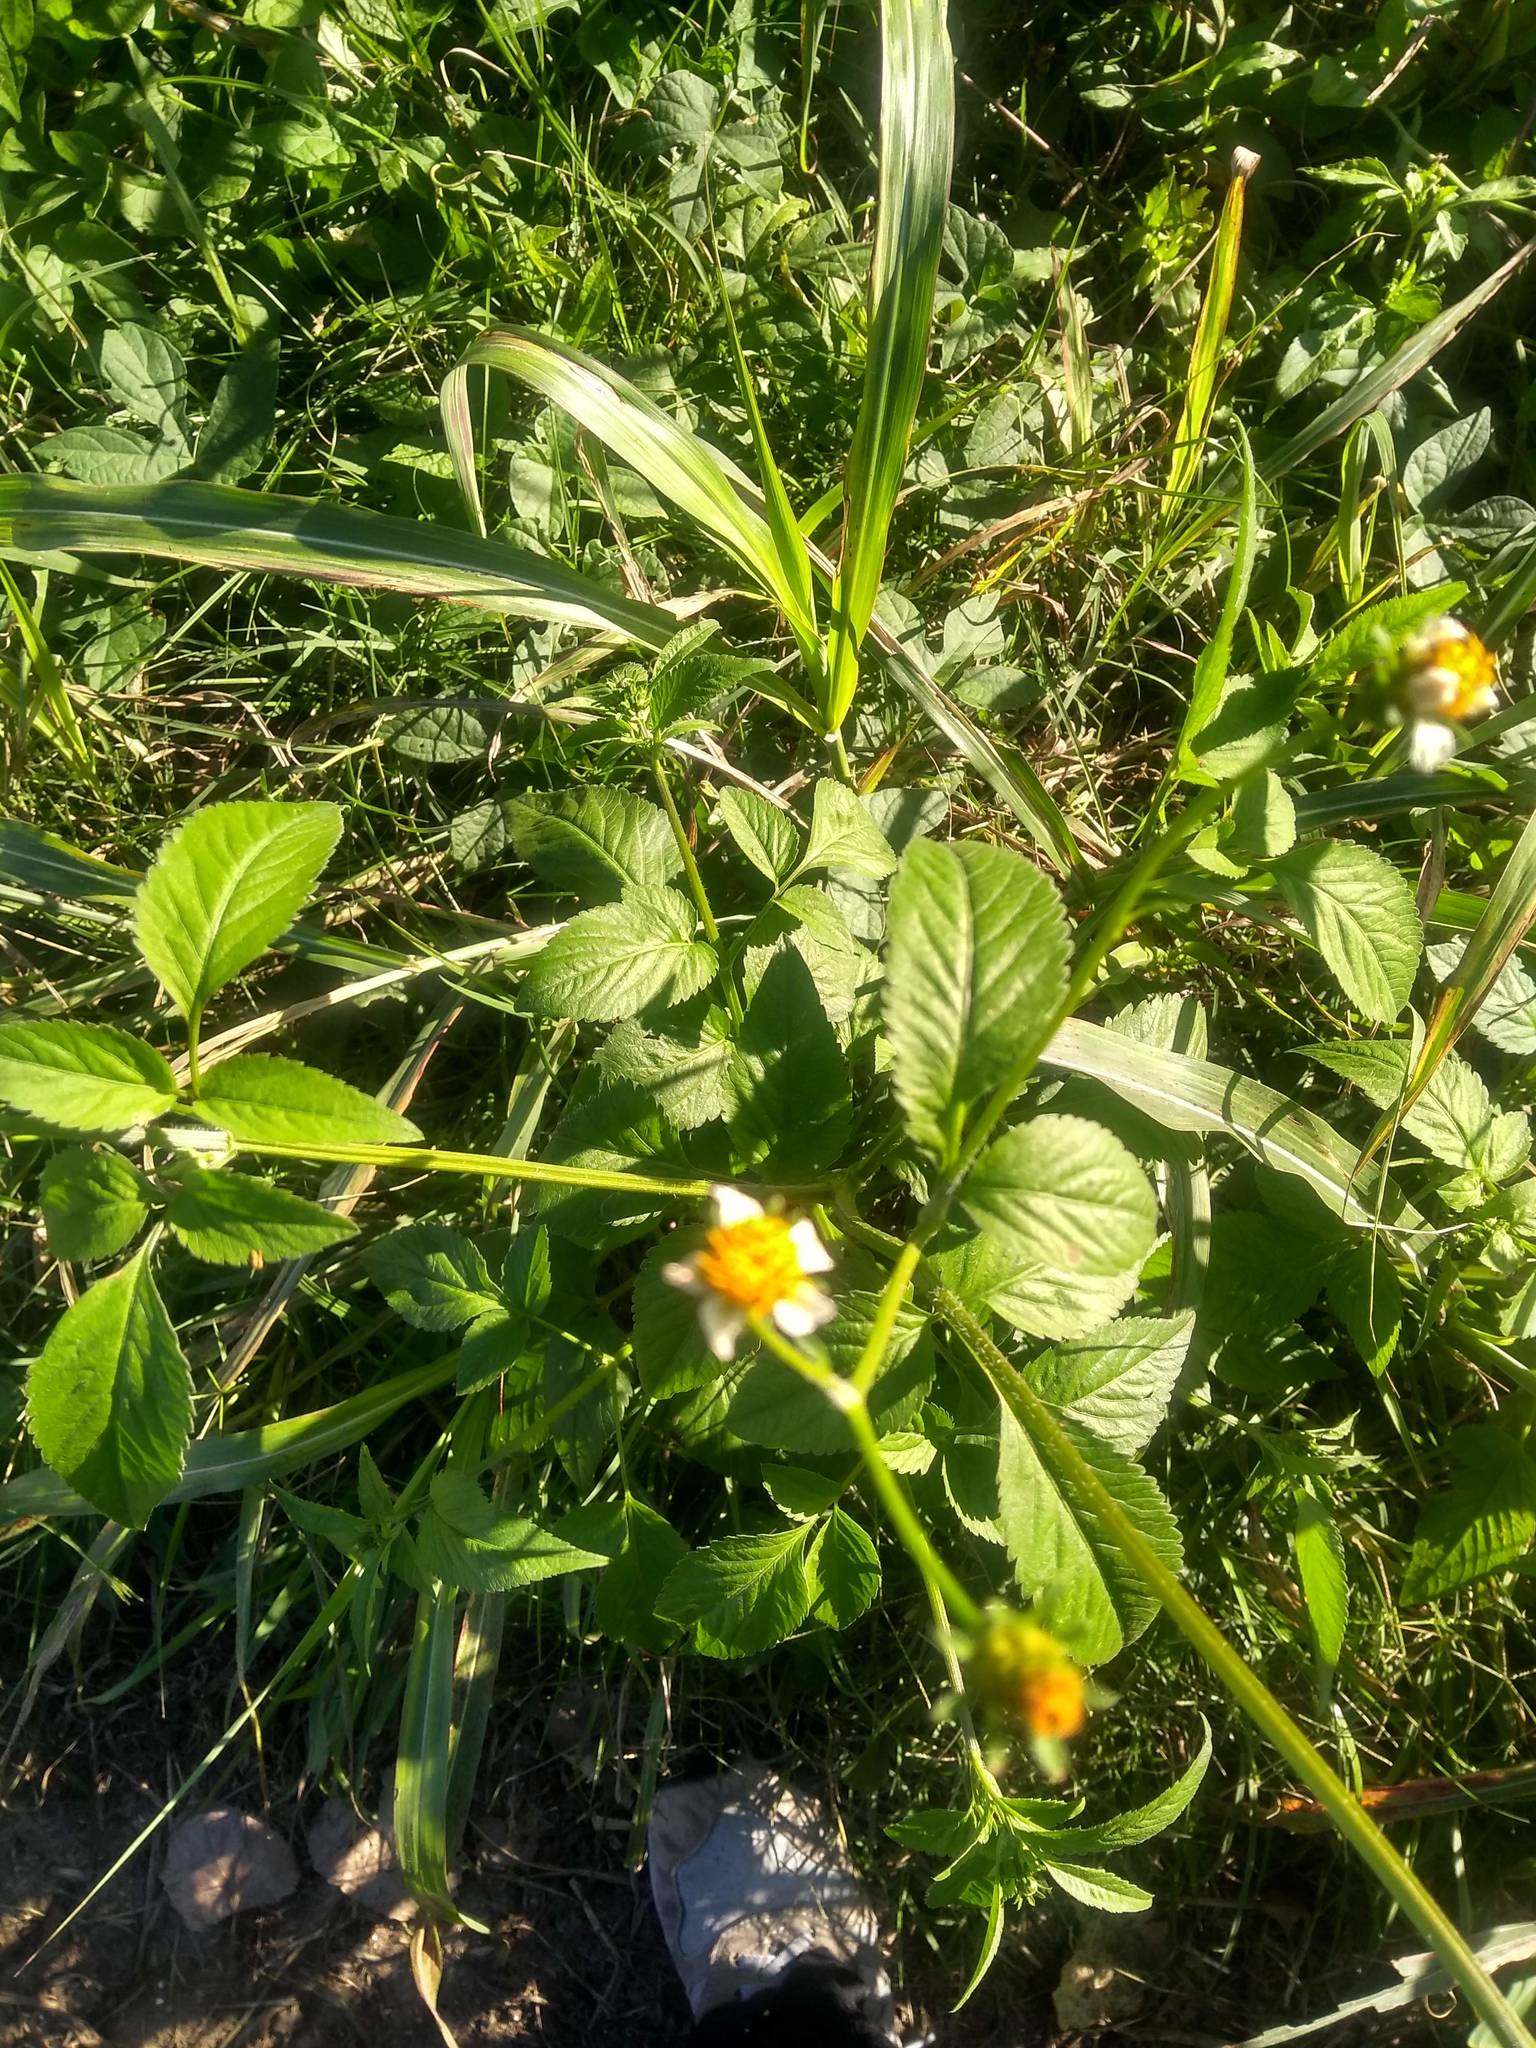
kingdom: Plantae
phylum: Tracheophyta
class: Magnoliopsida
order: Asterales
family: Asteraceae
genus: Bidens
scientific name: Bidens pilosa
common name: Black-jack
